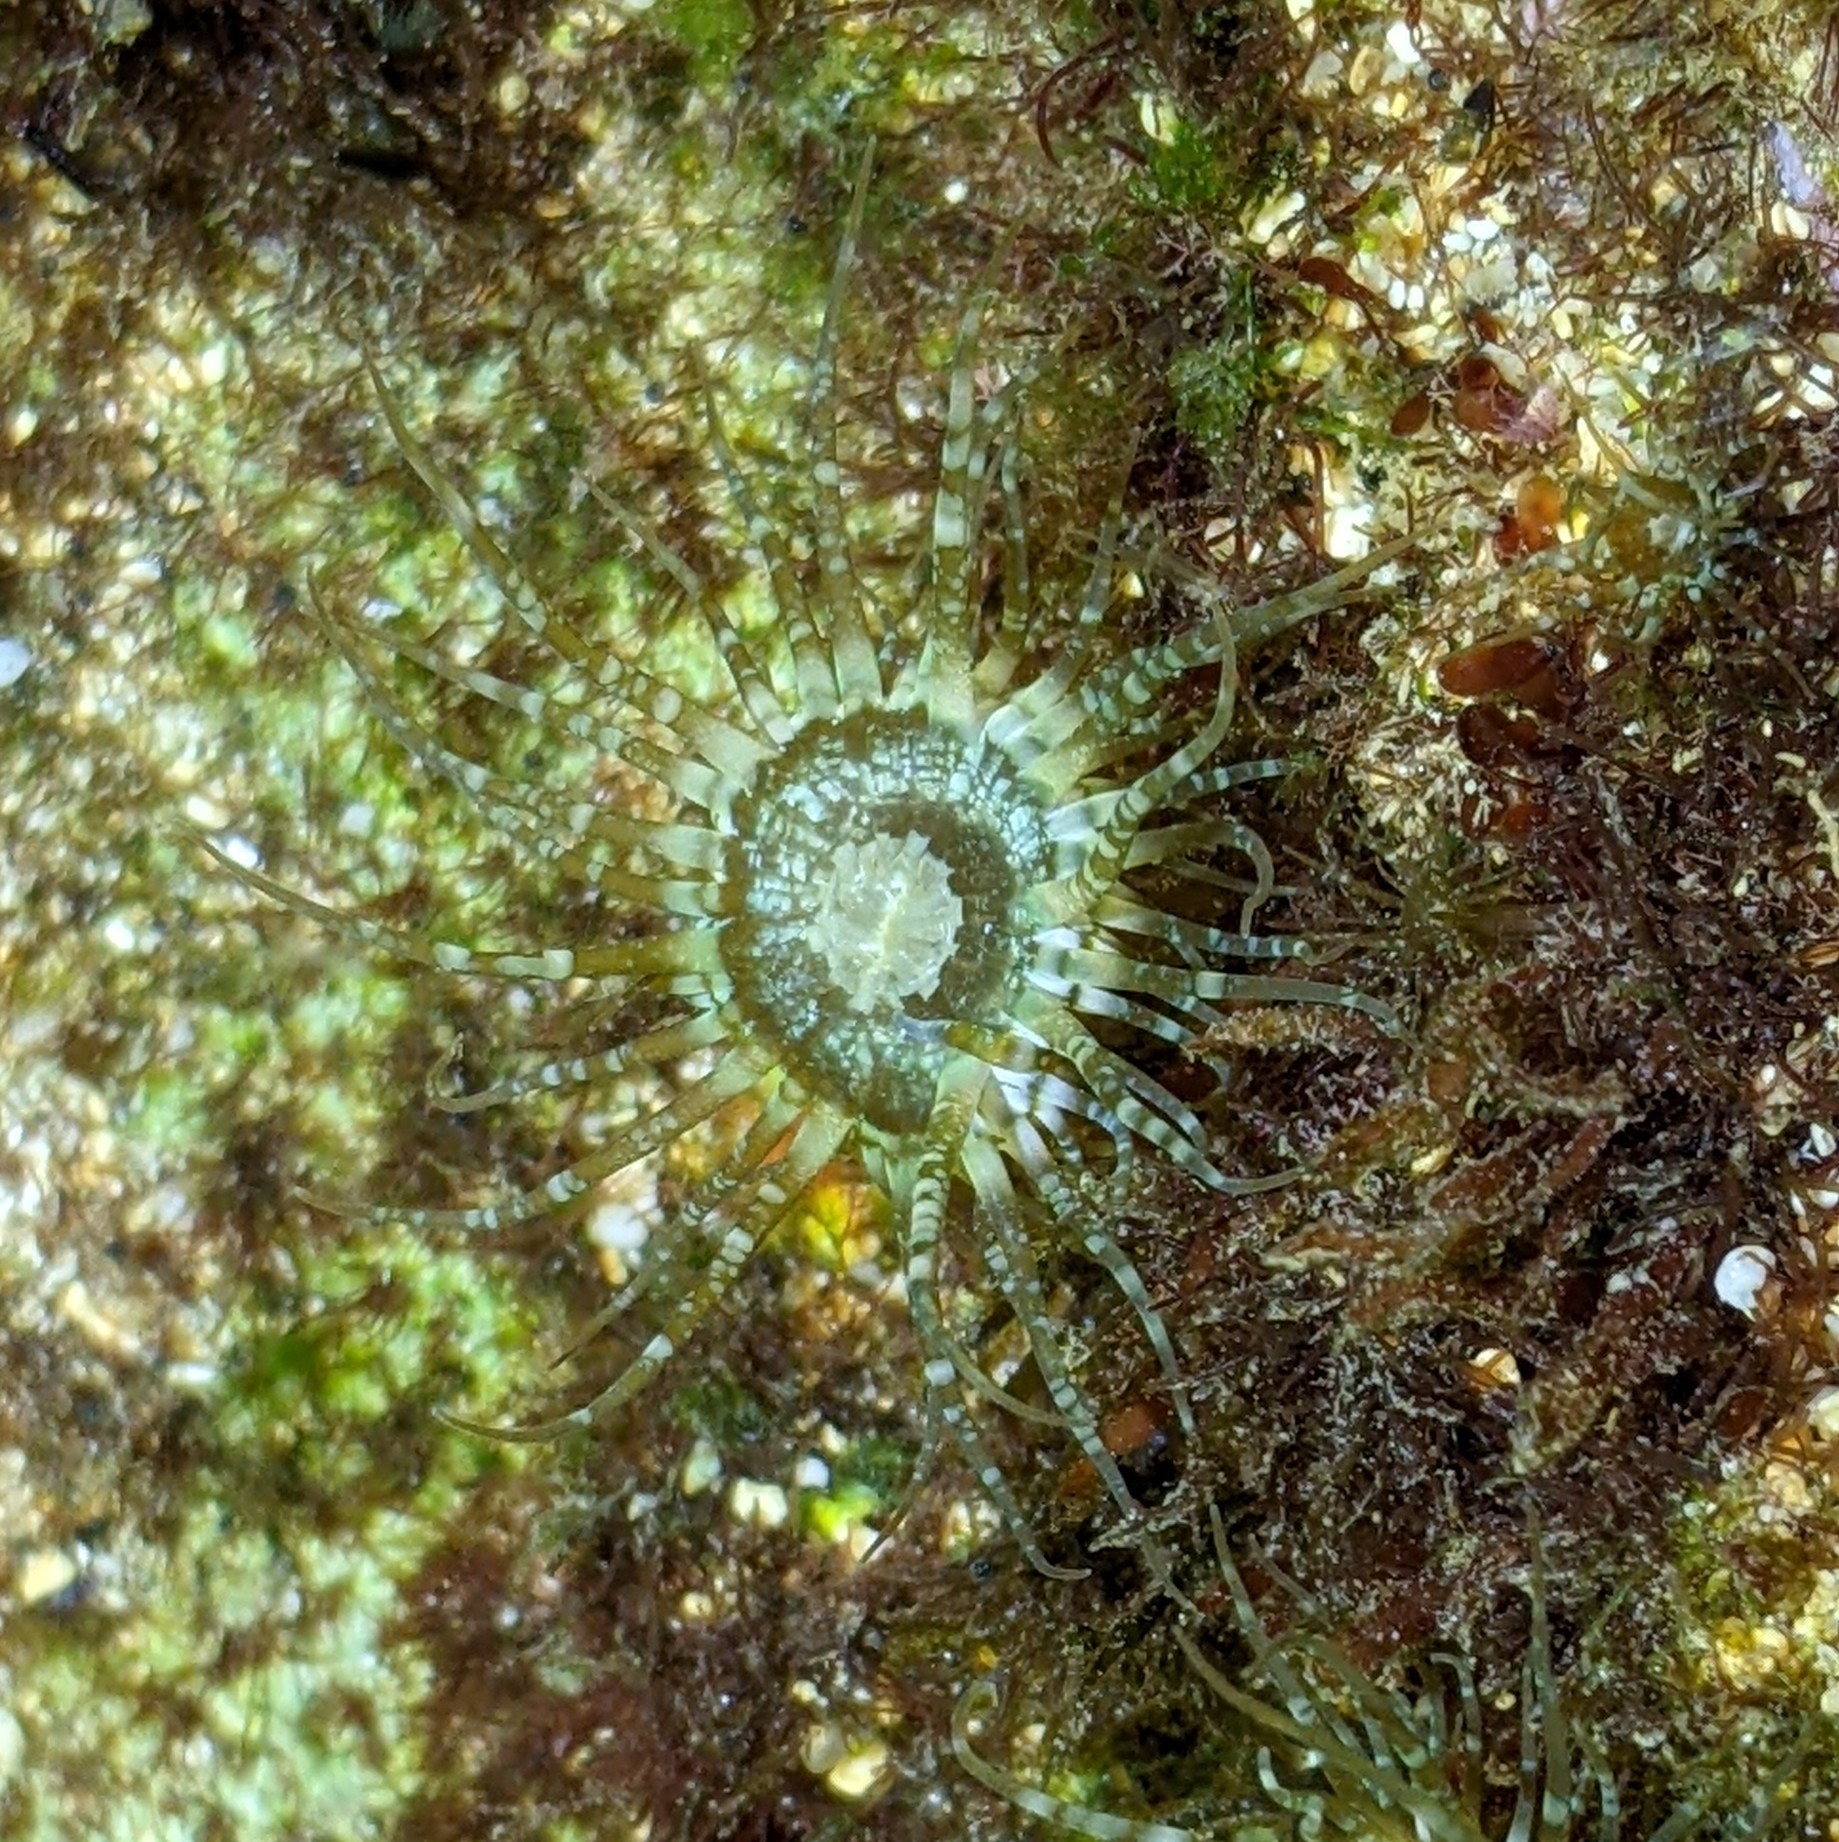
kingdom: Animalia
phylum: Cnidaria
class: Anthozoa
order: Actiniaria
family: Aiptasiidae
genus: Exaiptasia
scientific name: Exaiptasia diaphana
